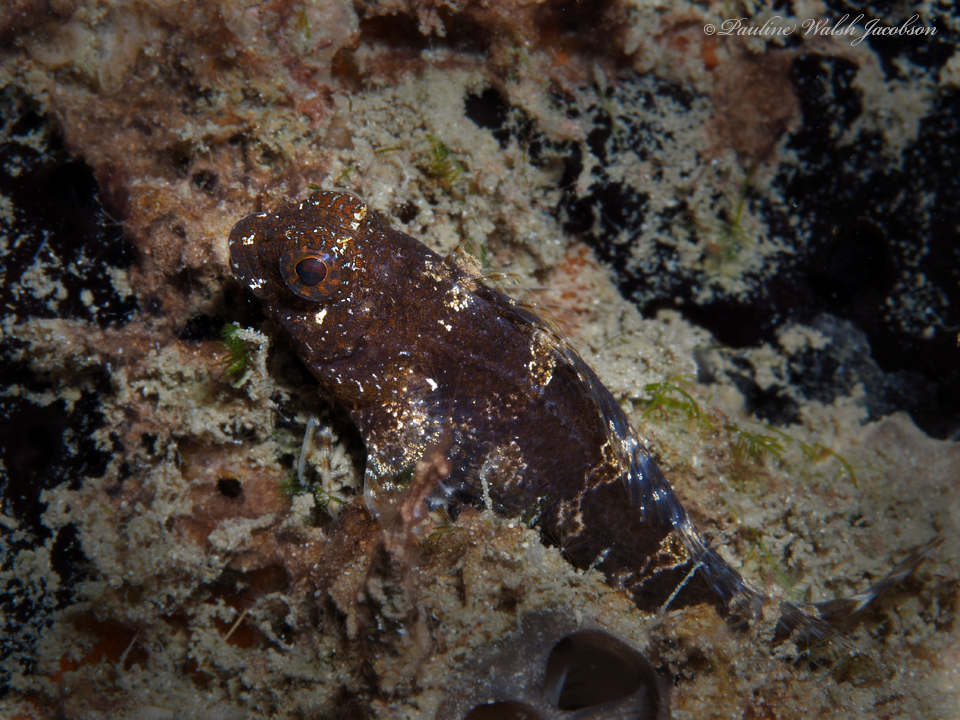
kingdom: Animalia
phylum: Chordata
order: Perciformes
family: Blenniidae
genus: Hypleurochilus
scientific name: Hypleurochilus bermudensis
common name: Barred blenny
